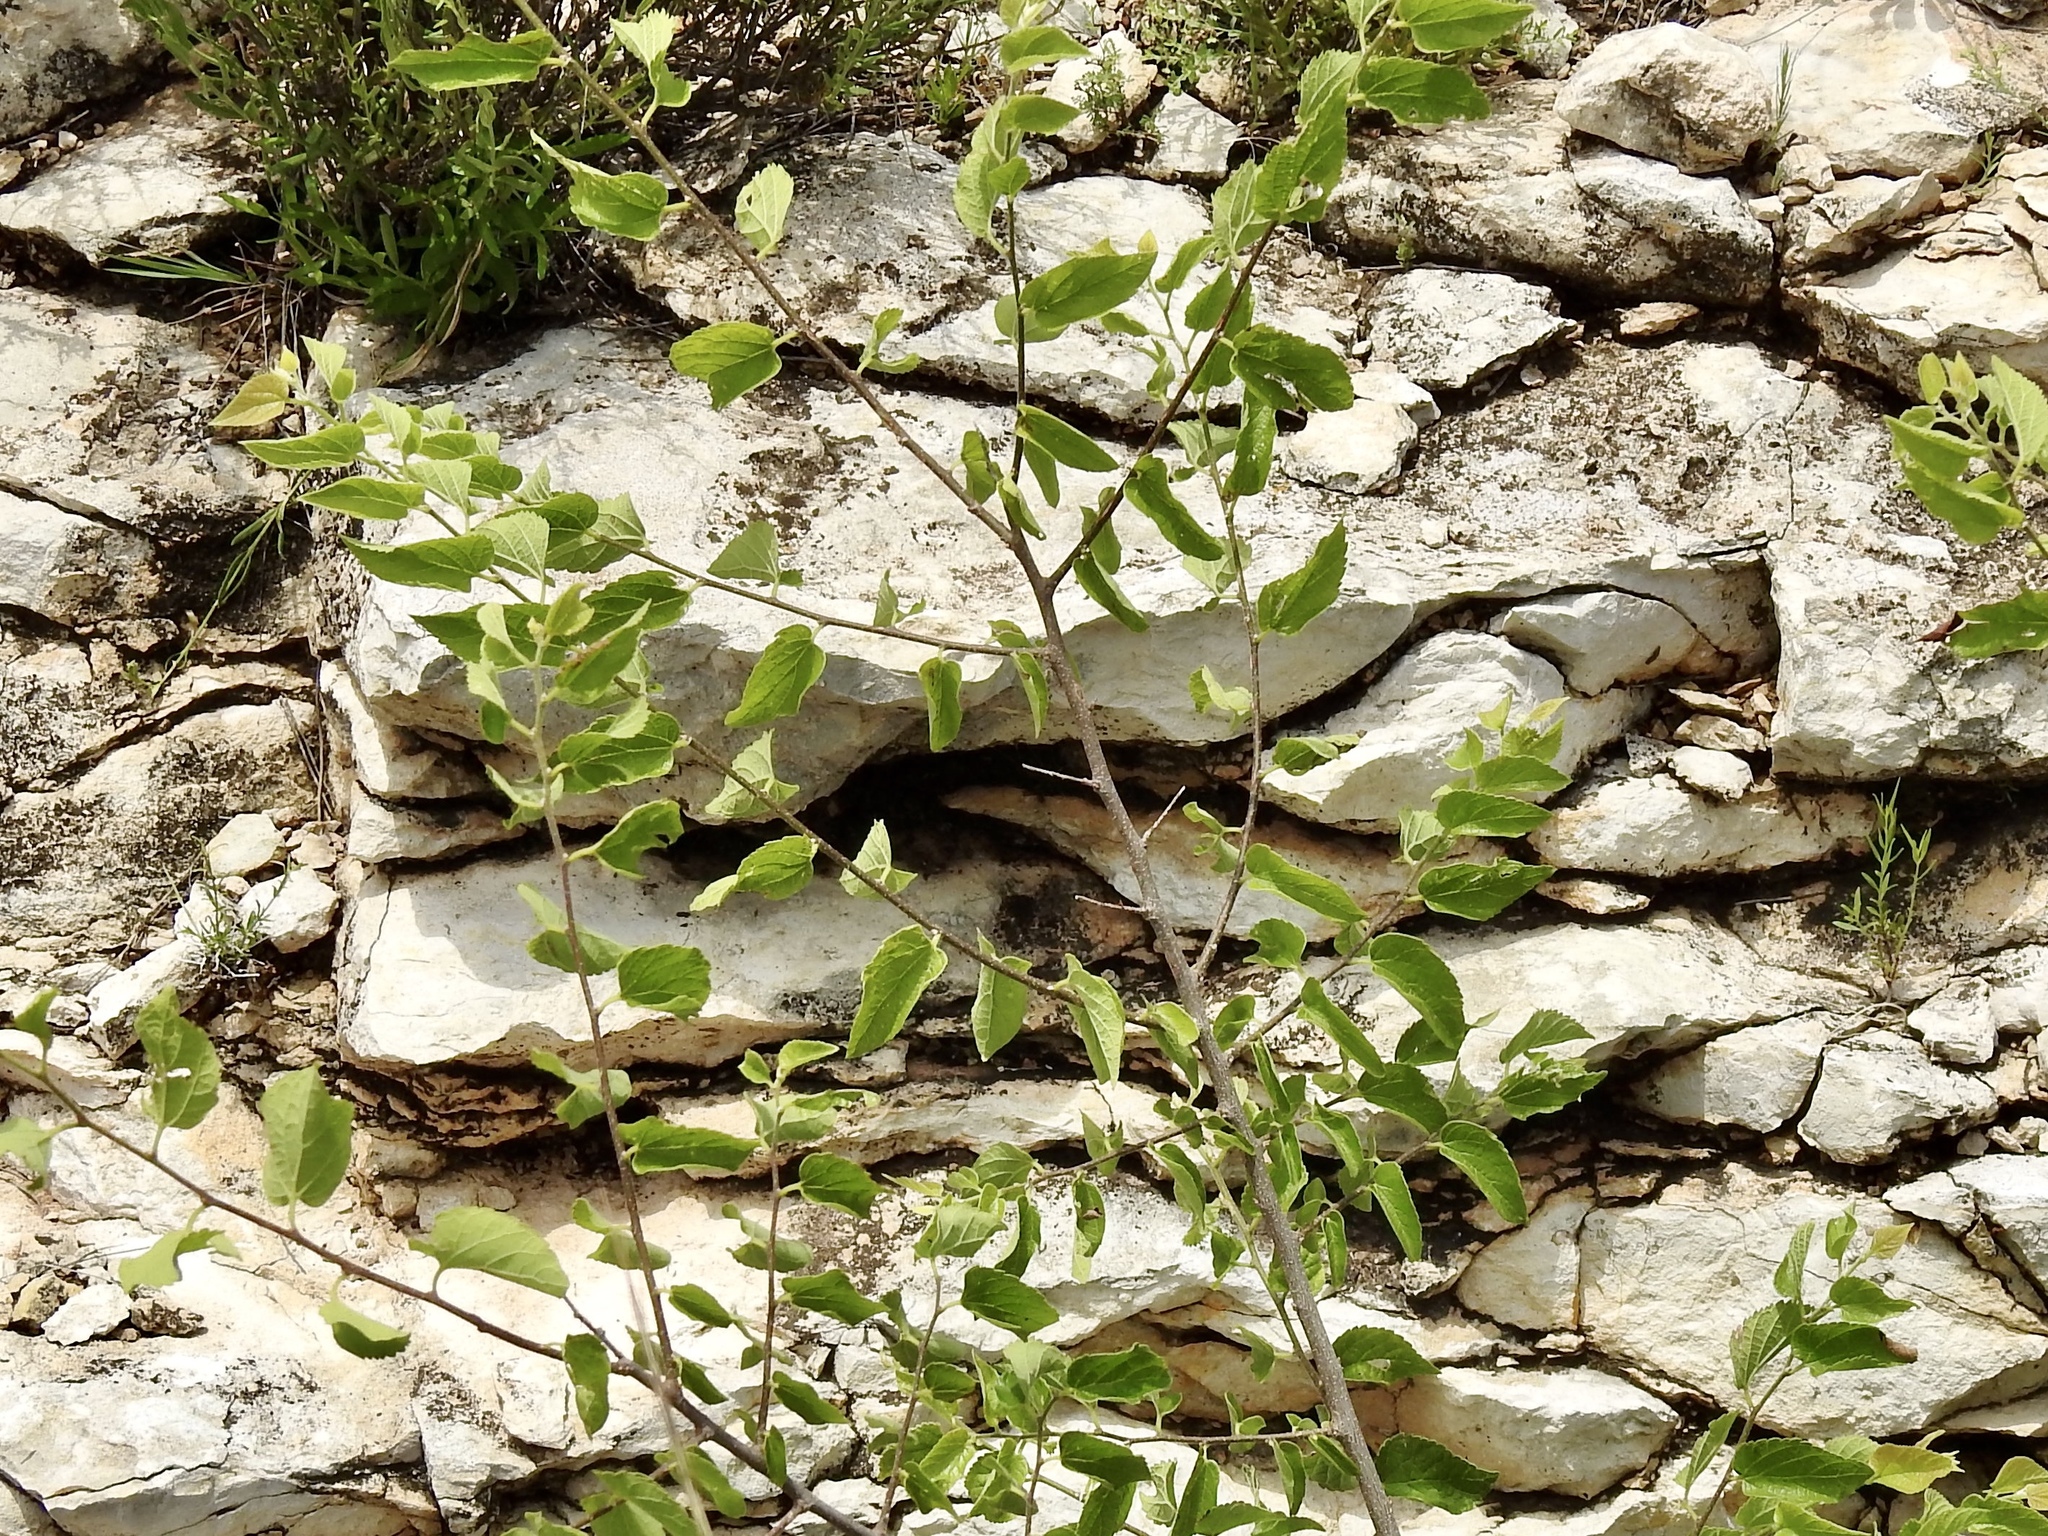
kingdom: Plantae
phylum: Tracheophyta
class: Magnoliopsida
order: Rosales
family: Cannabaceae
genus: Celtis
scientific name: Celtis reticulata
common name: Netleaf hackberry
